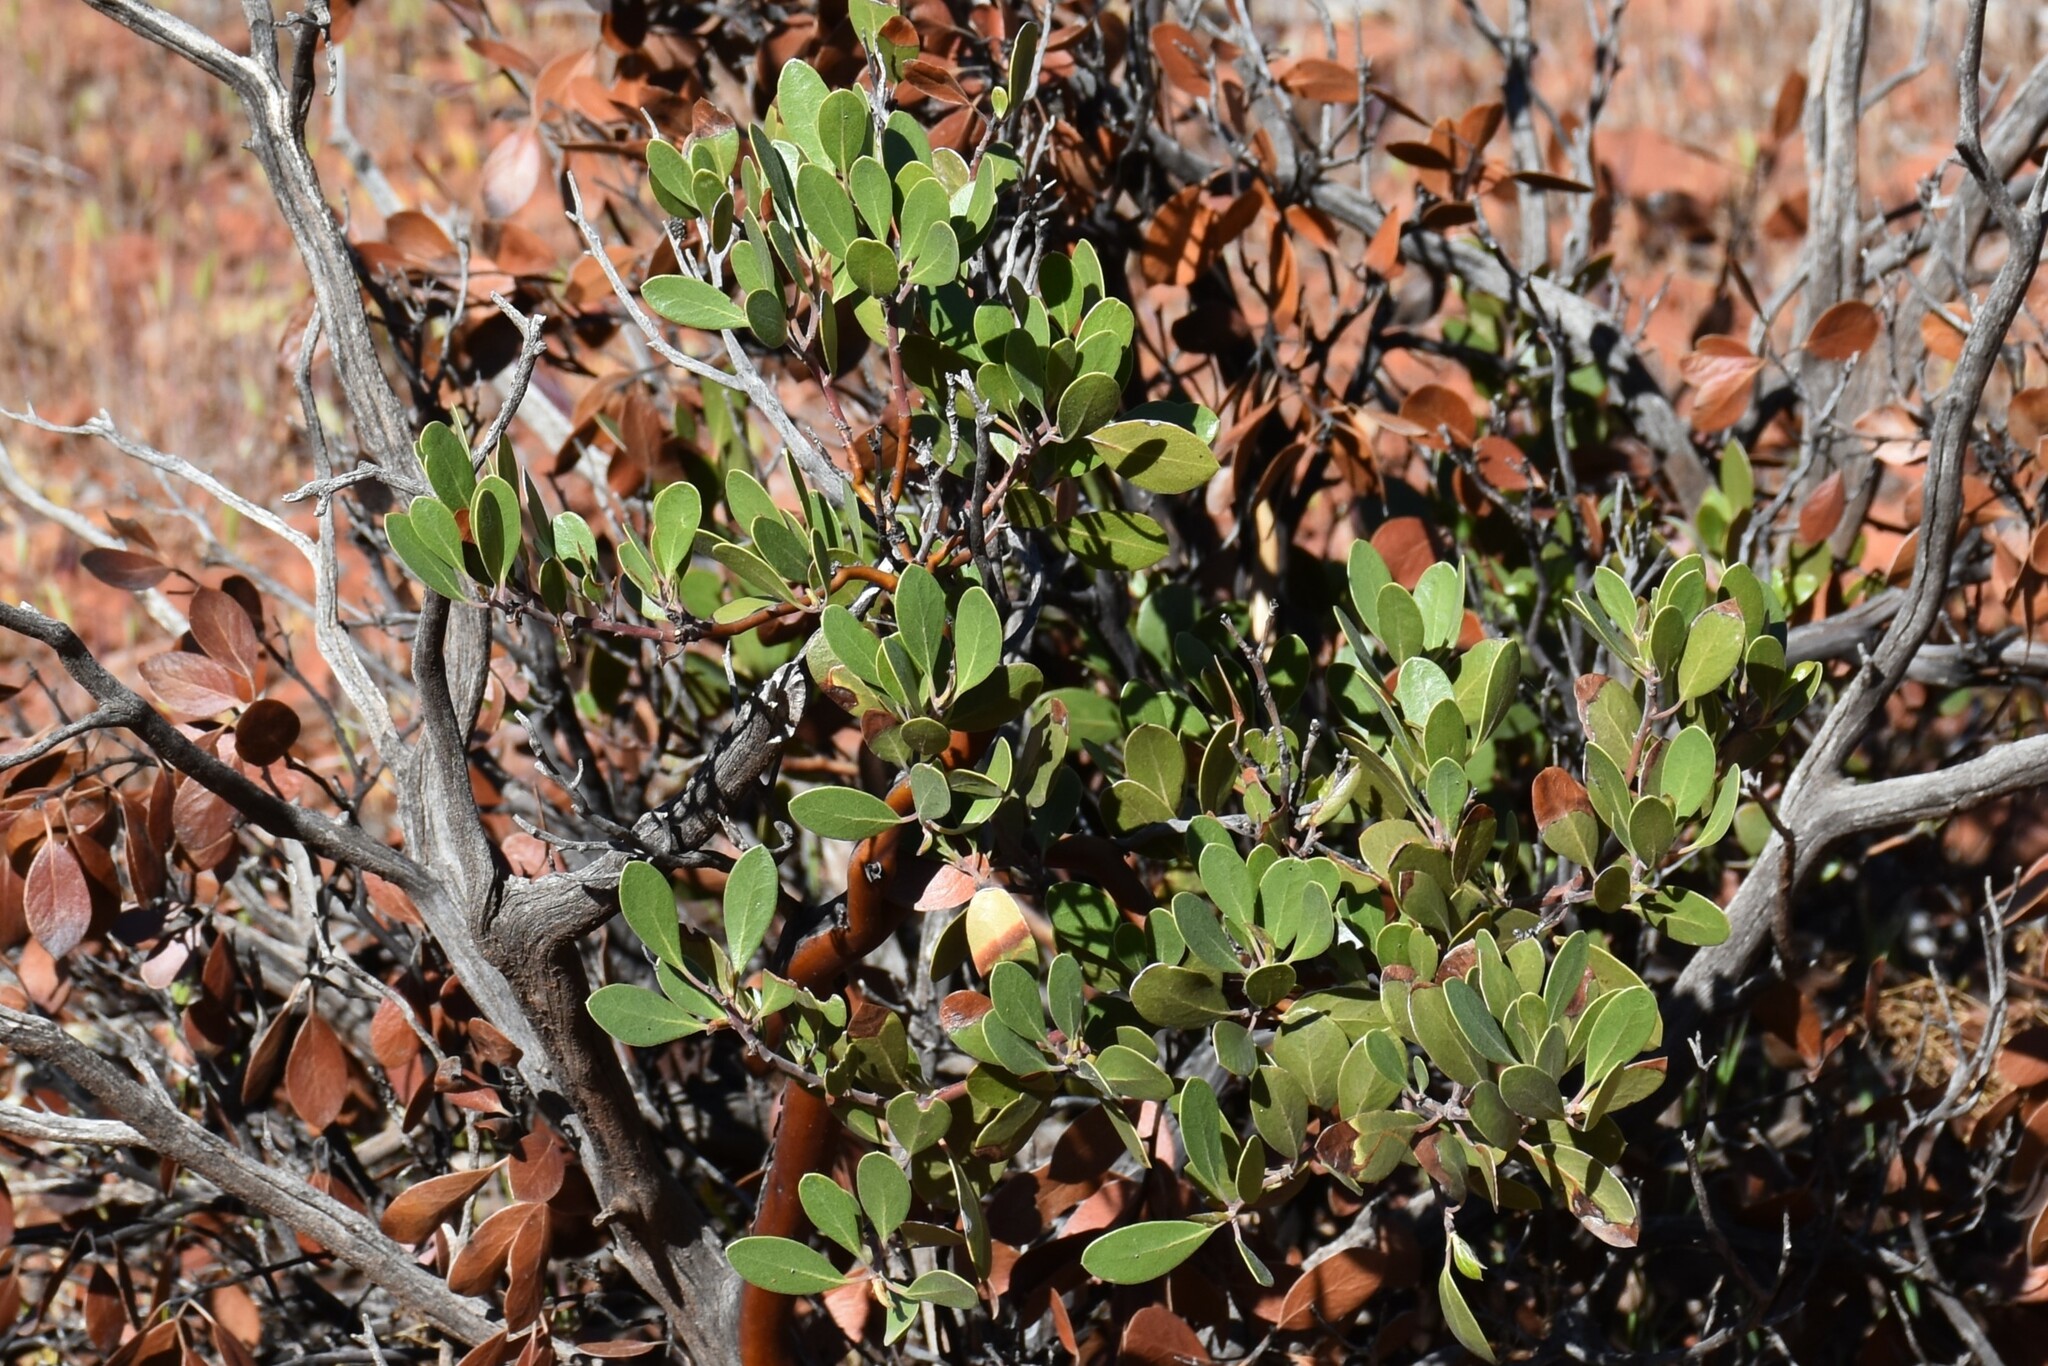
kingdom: Plantae
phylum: Tracheophyta
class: Magnoliopsida
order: Ericales
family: Ericaceae
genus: Arctostaphylos
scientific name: Arctostaphylos pungens
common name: Mexican manzanita
